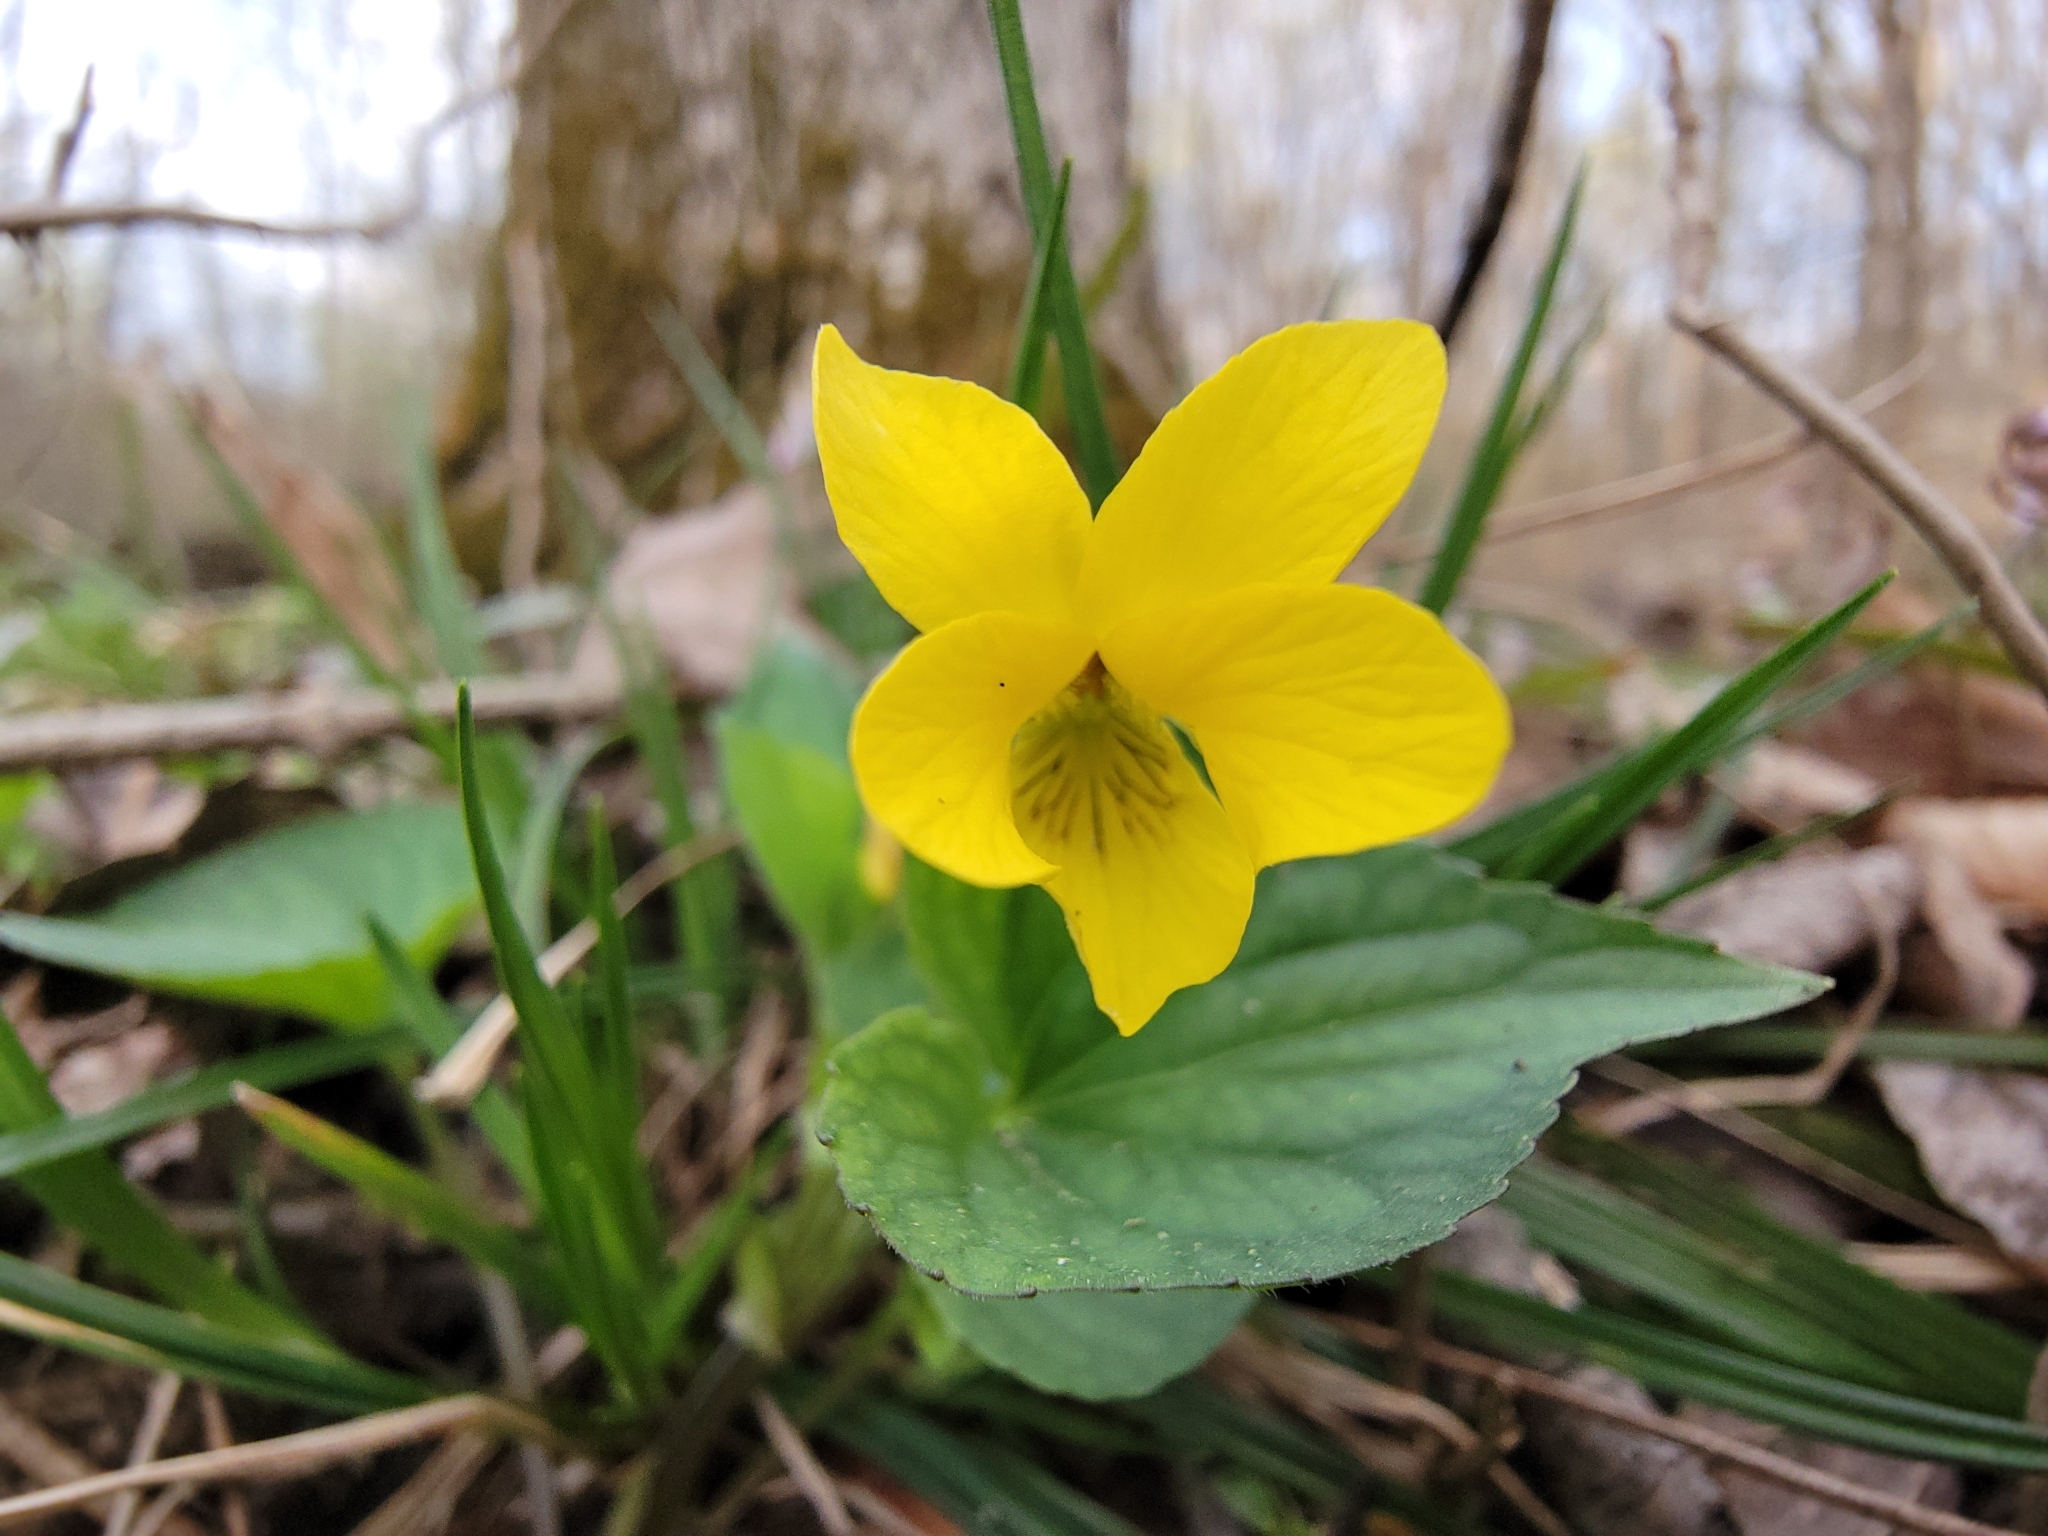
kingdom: Plantae
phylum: Tracheophyta
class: Magnoliopsida
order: Malpighiales
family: Violaceae
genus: Viola
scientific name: Viola eriocarpa
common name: Smooth yellow violet
